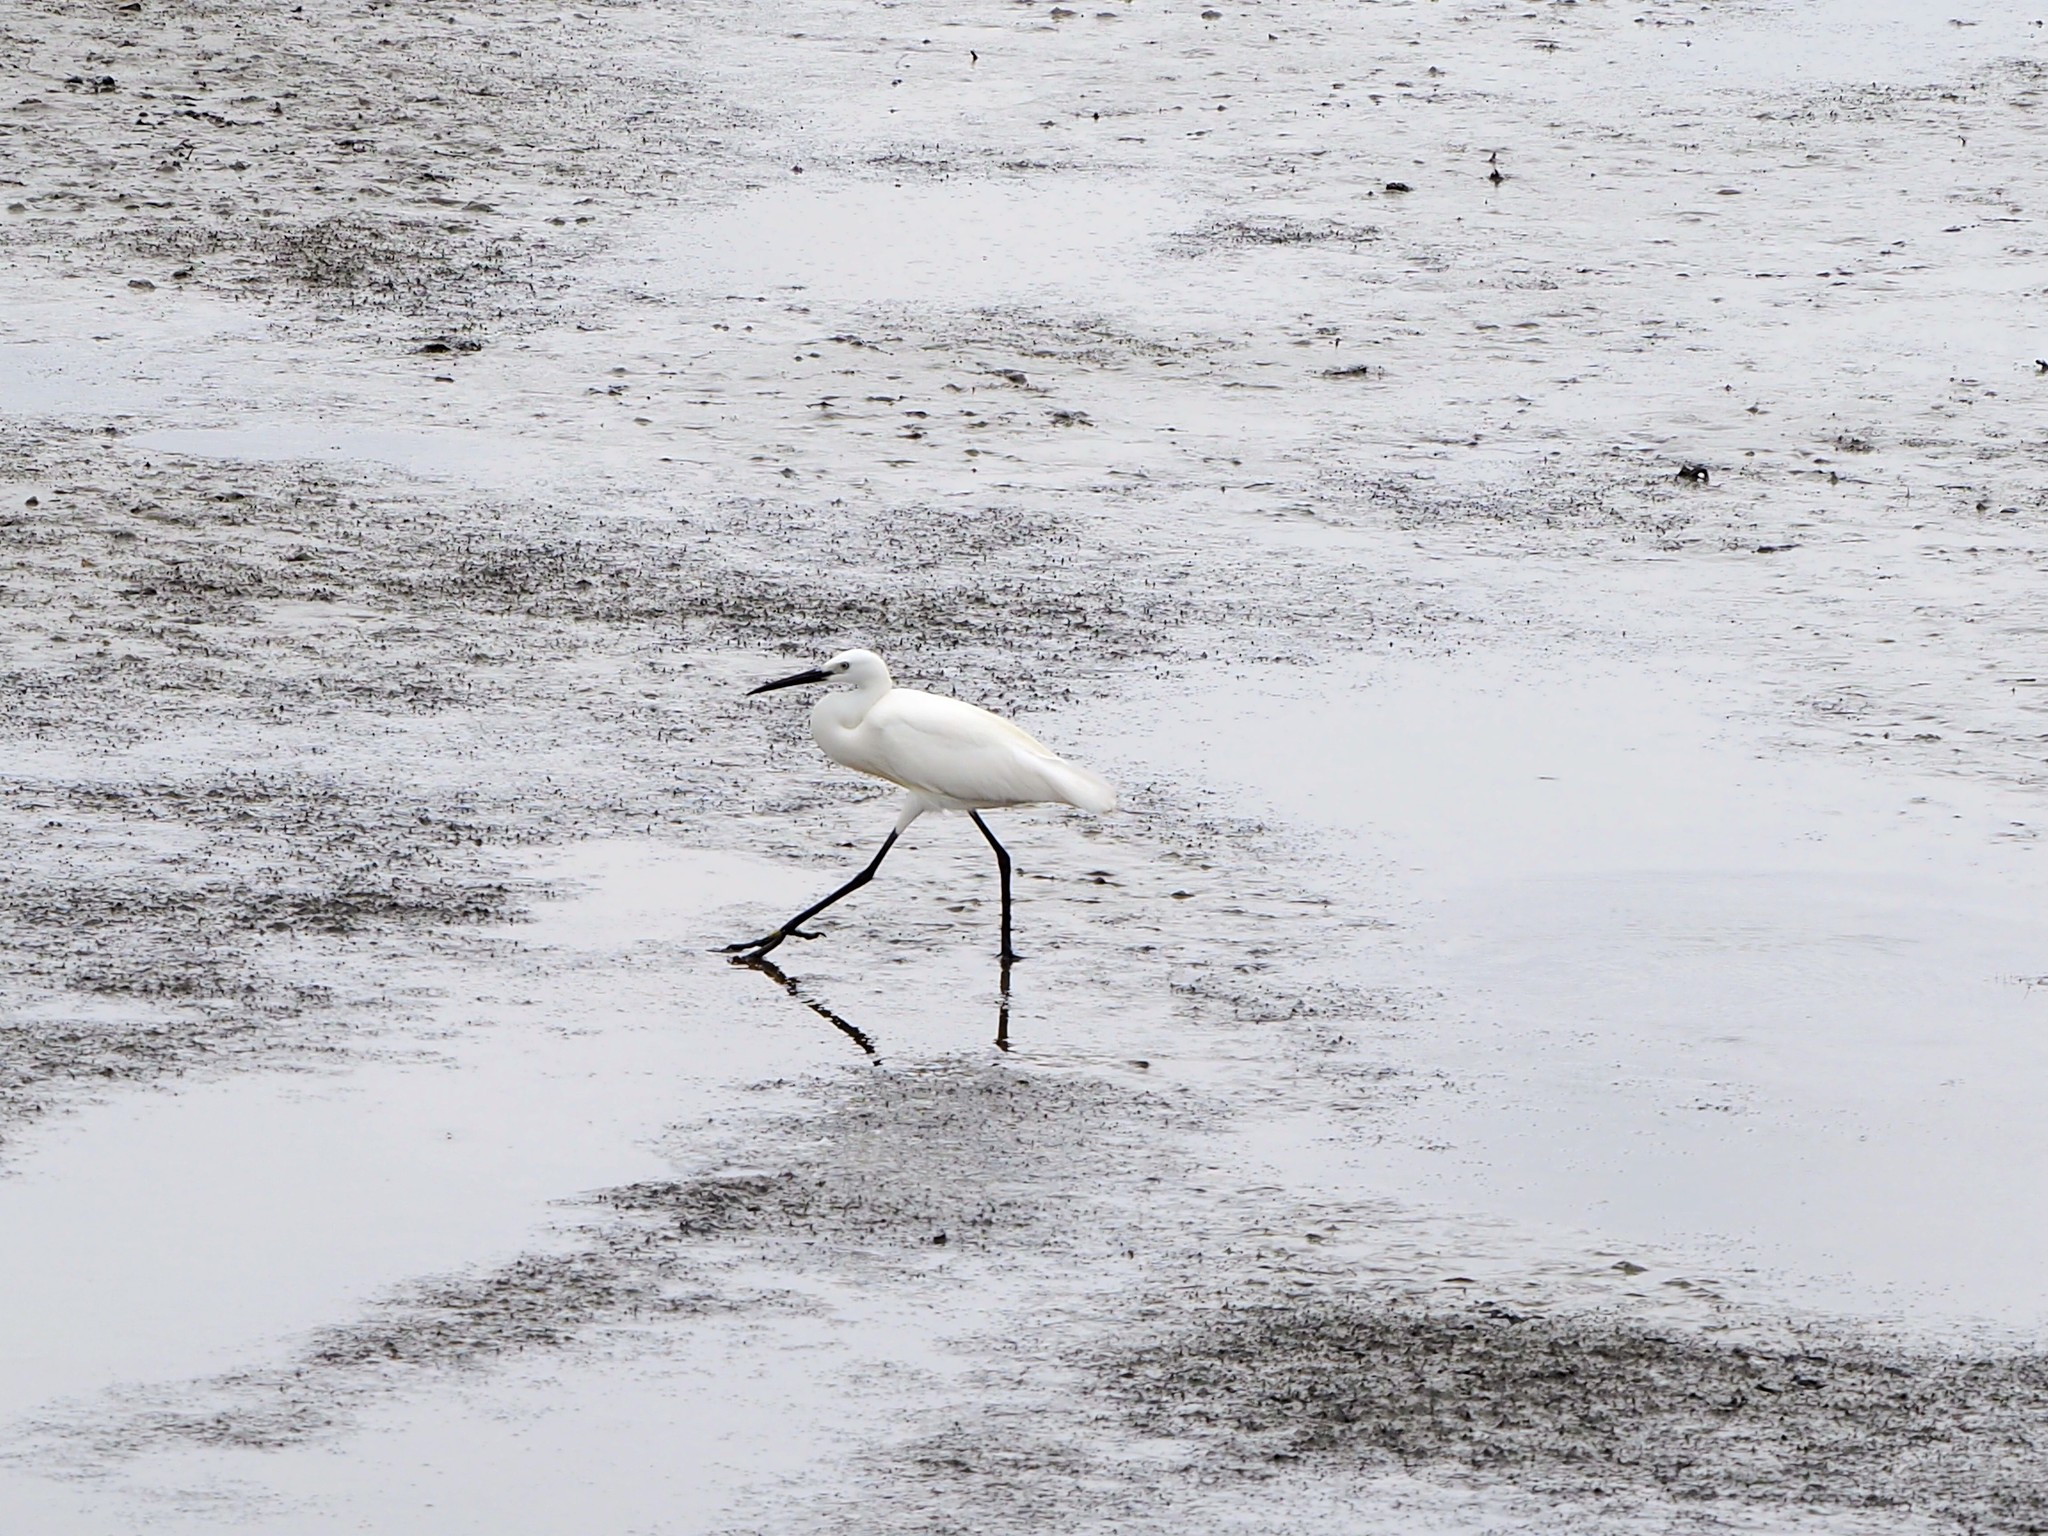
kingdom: Animalia
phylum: Chordata
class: Aves
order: Pelecaniformes
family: Ardeidae
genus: Egretta
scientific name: Egretta garzetta
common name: Little egret
